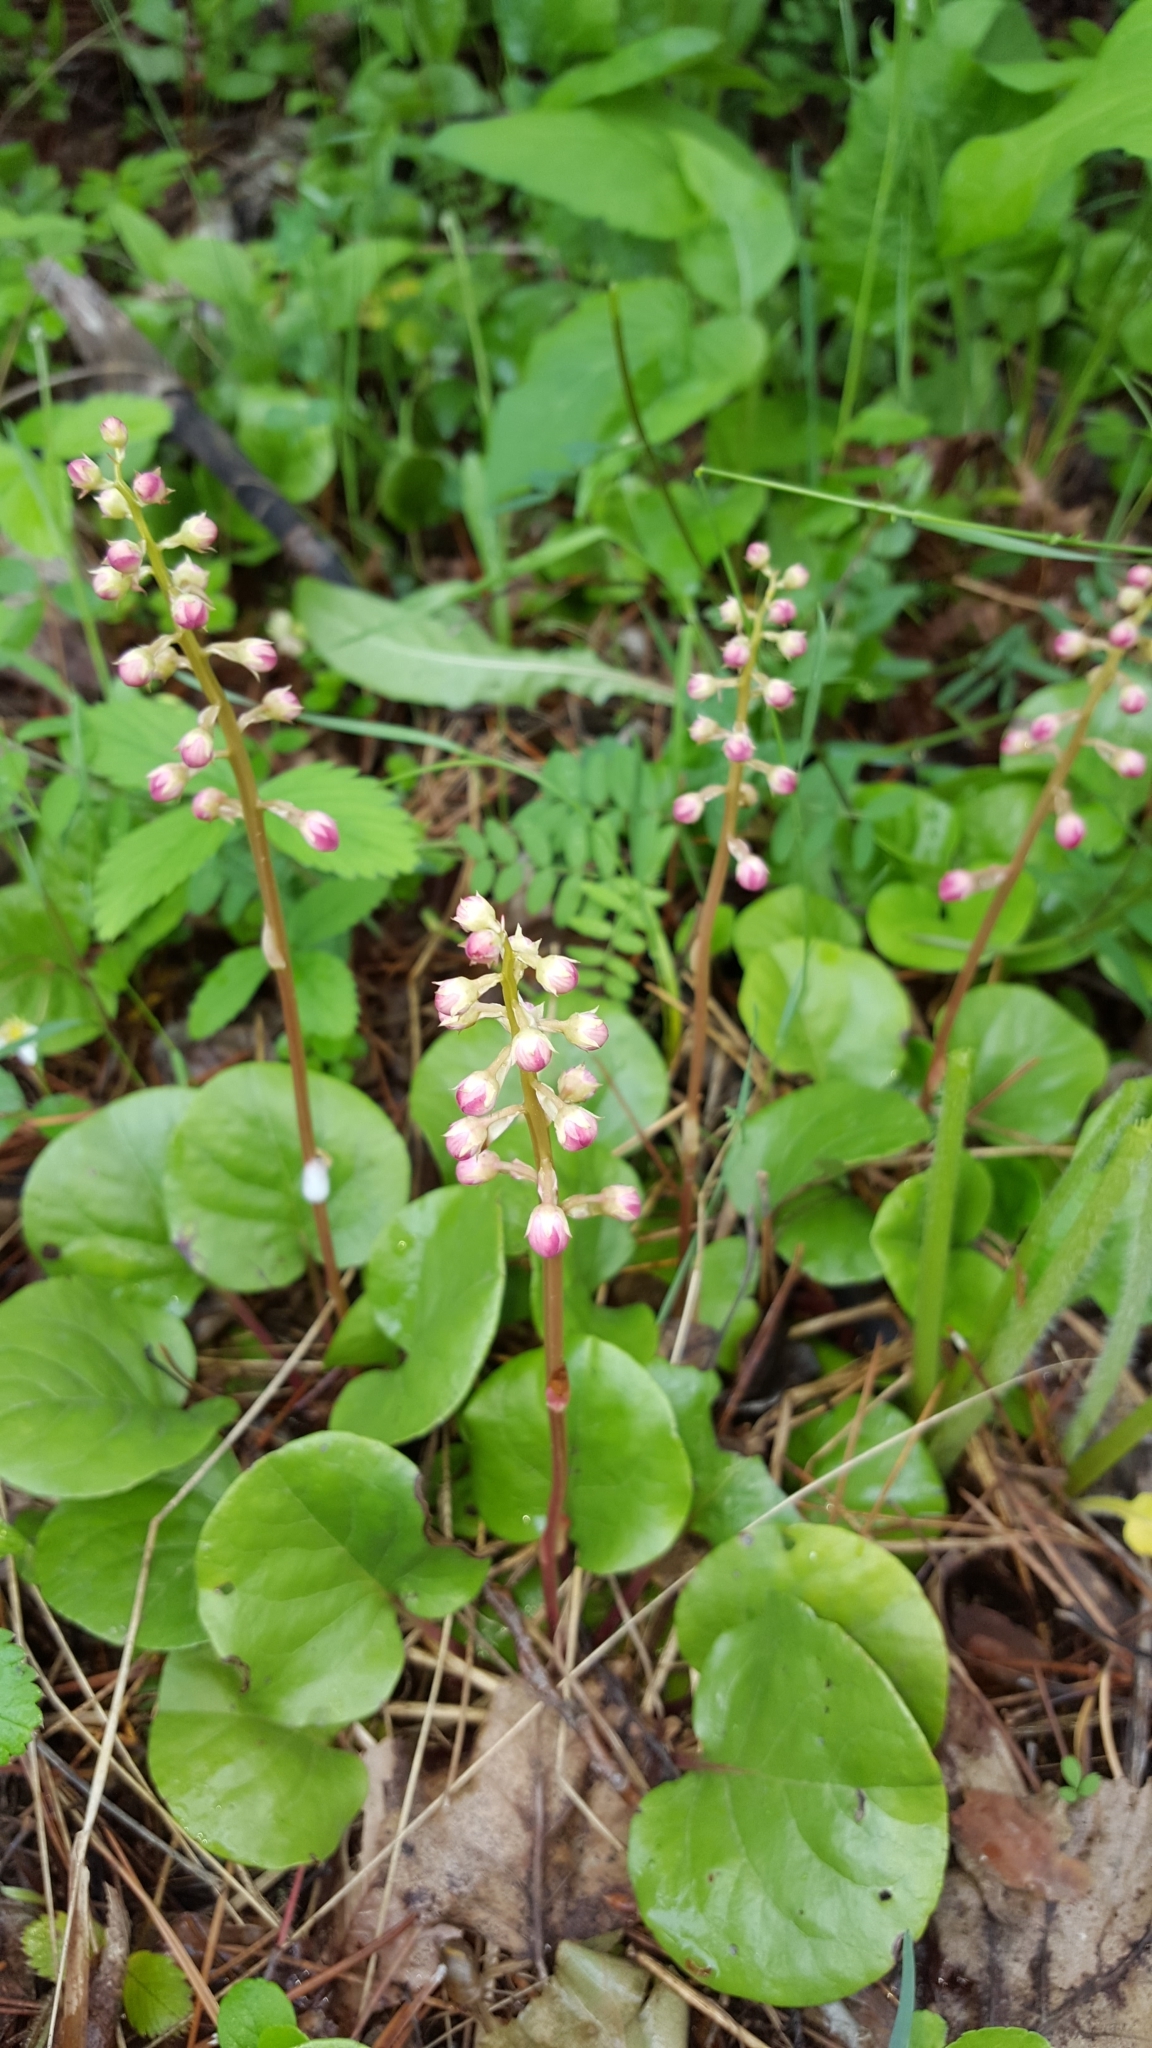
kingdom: Plantae
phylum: Tracheophyta
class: Magnoliopsida
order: Ericales
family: Ericaceae
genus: Pyrola
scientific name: Pyrola asarifolia
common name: Bog wintergreen
